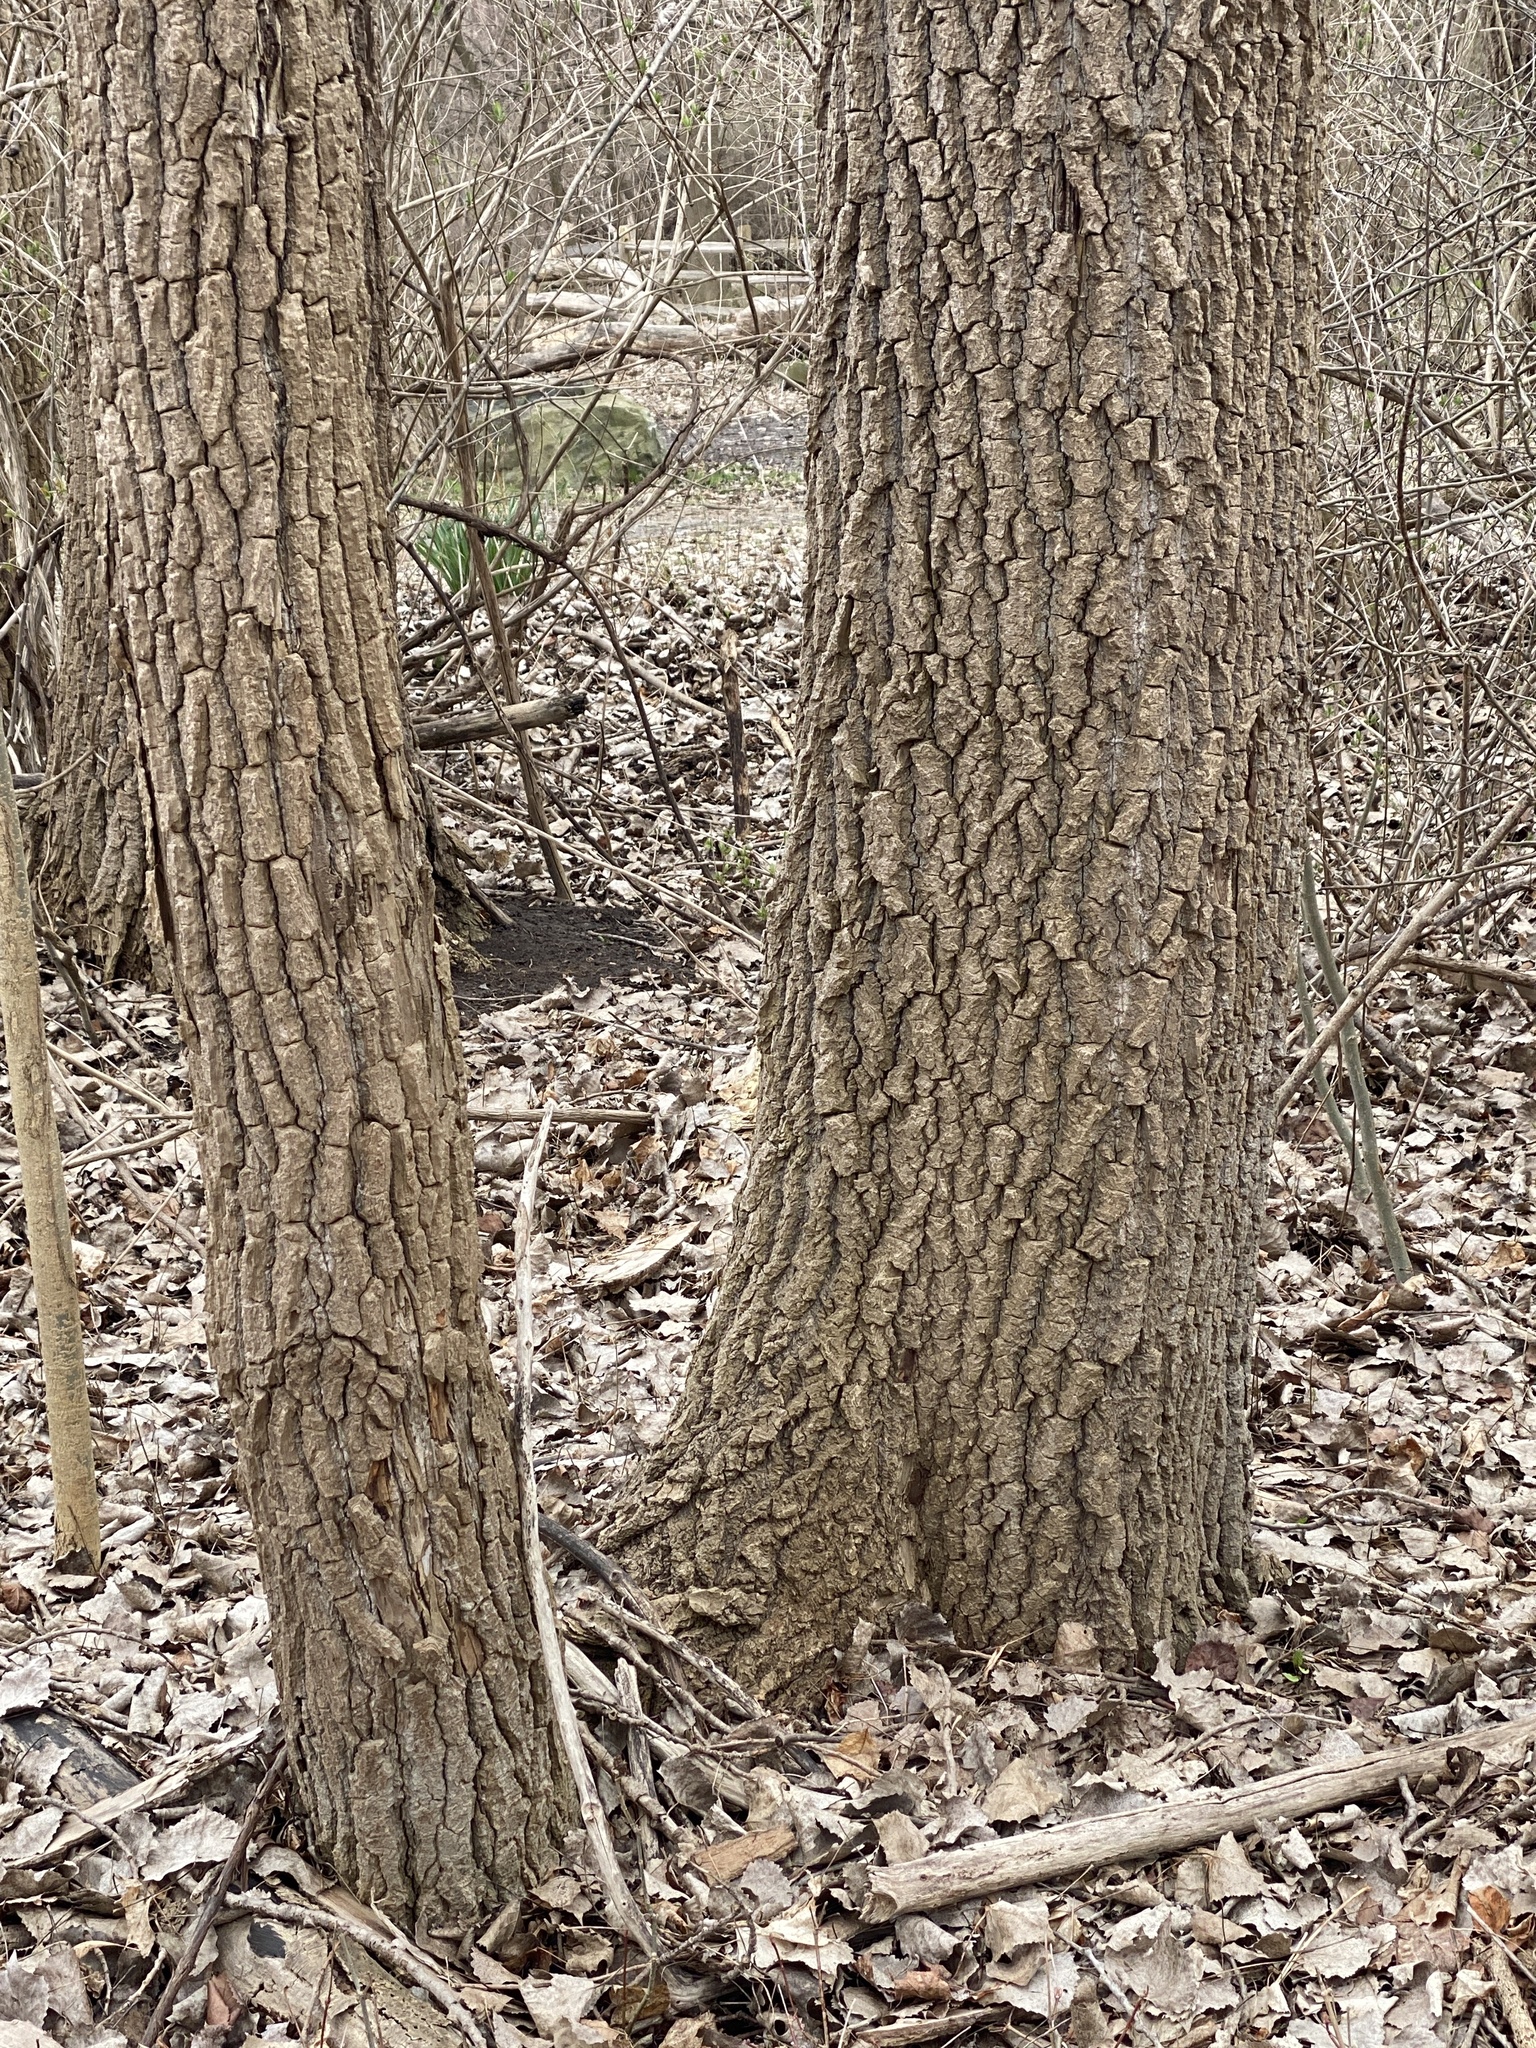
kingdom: Plantae
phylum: Tracheophyta
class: Magnoliopsida
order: Malpighiales
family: Salicaceae
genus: Populus
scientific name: Populus deltoides
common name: Eastern cottonwood
